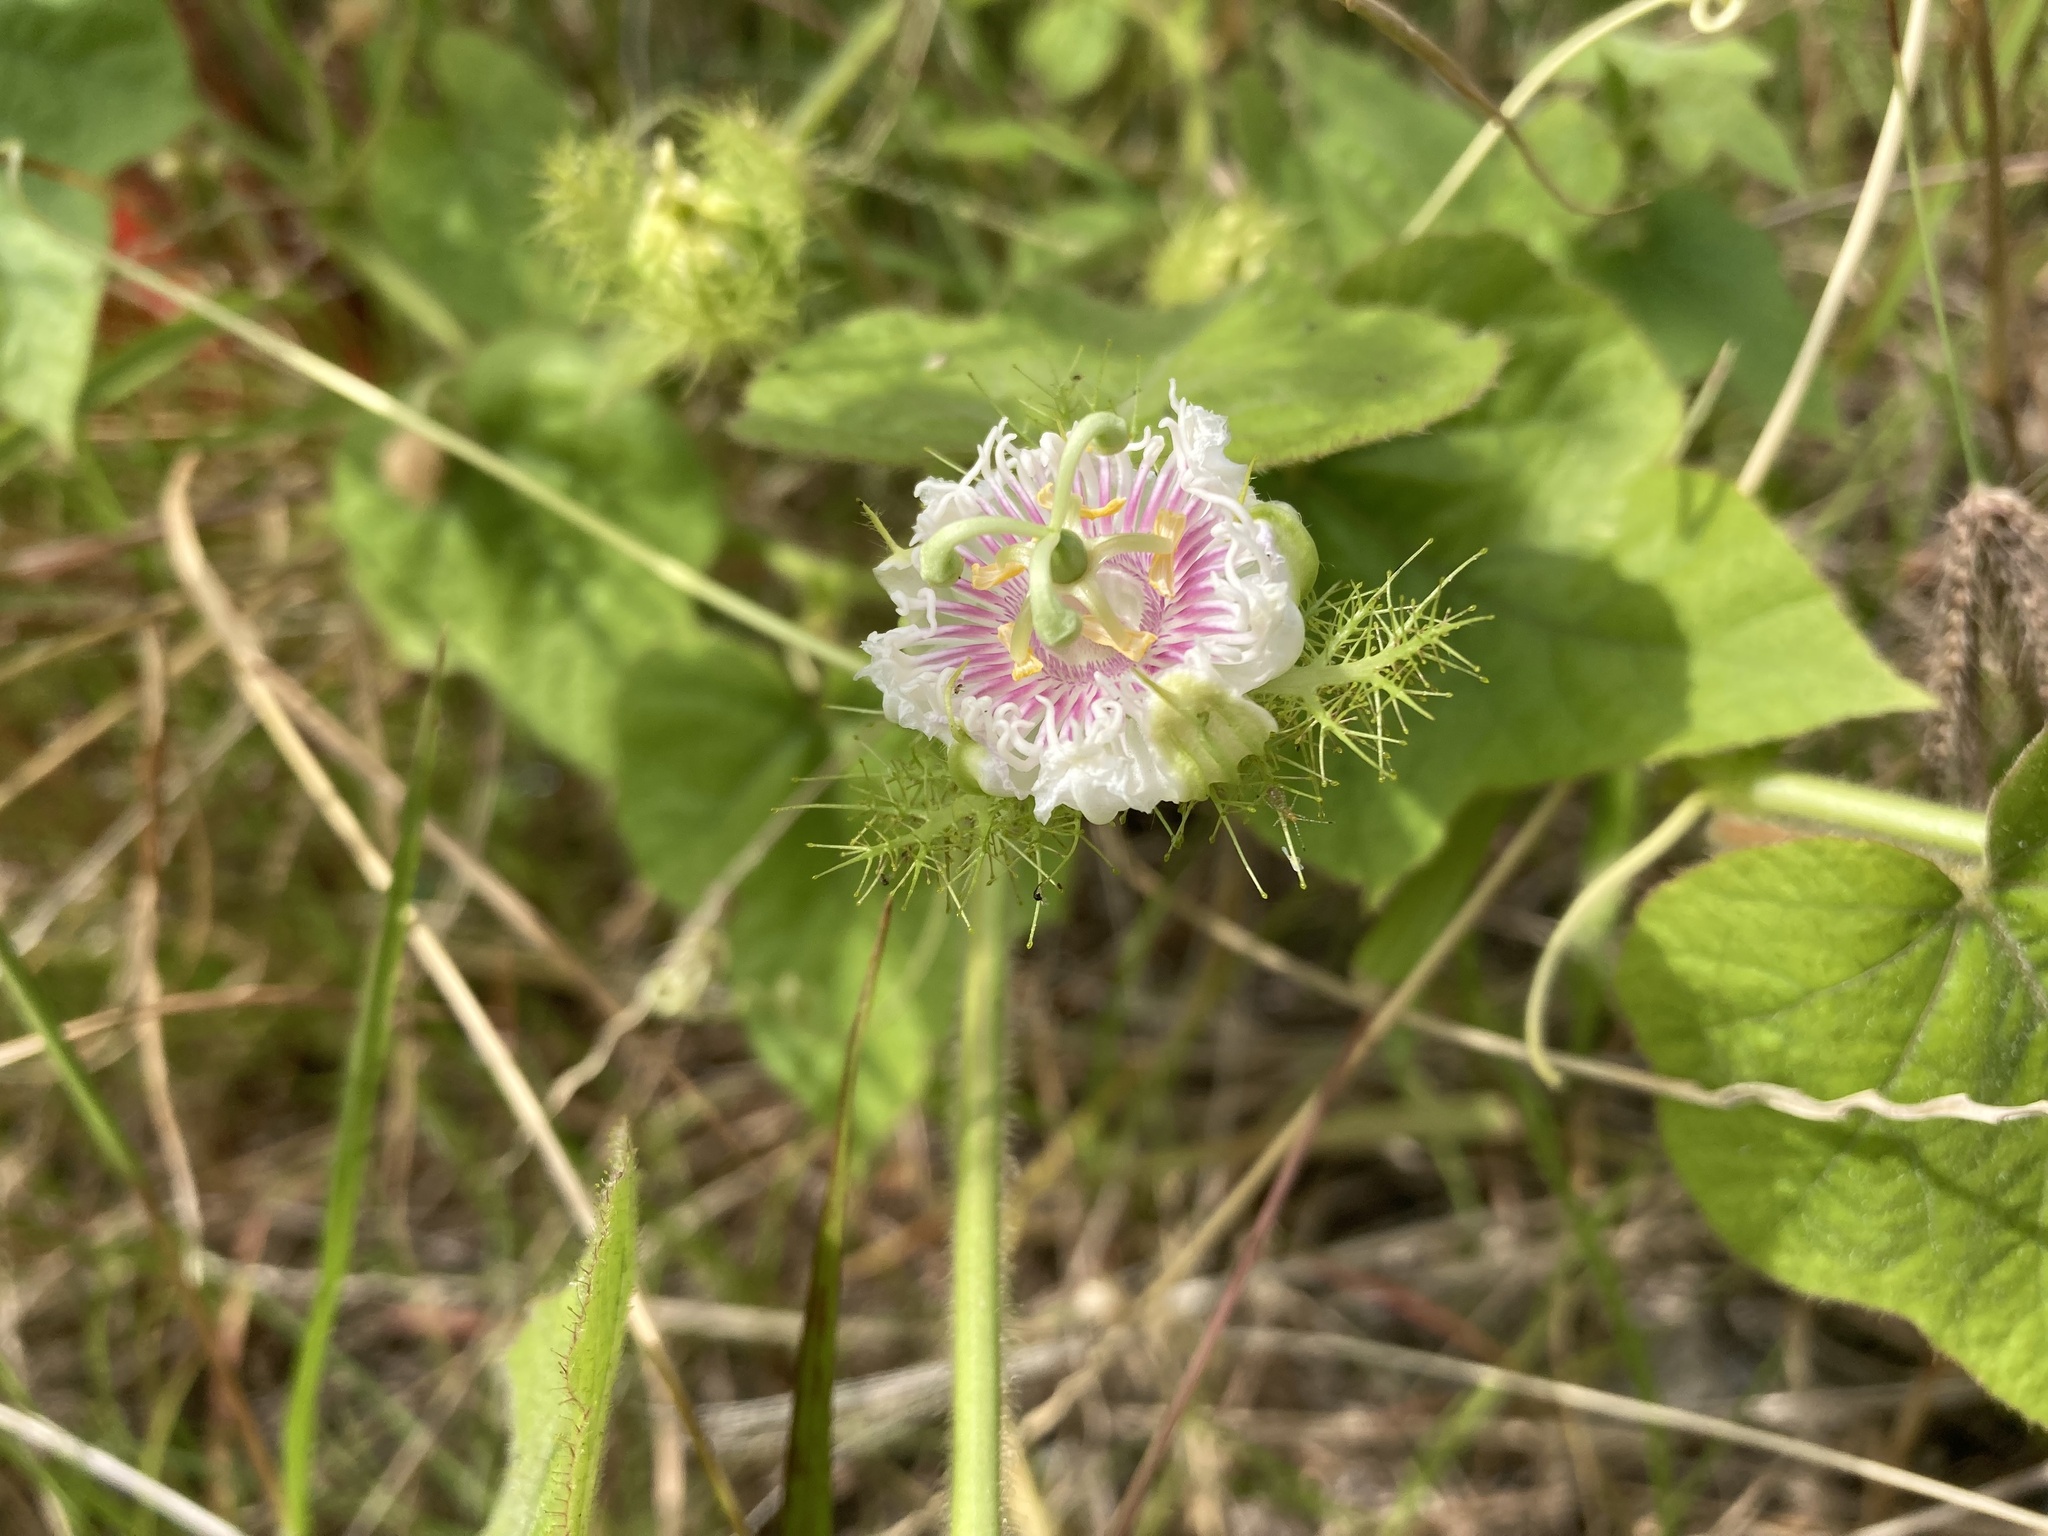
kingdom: Plantae
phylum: Tracheophyta
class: Magnoliopsida
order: Malpighiales
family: Passifloraceae
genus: Passiflora
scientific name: Passiflora foetida
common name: Fetid passionflower
